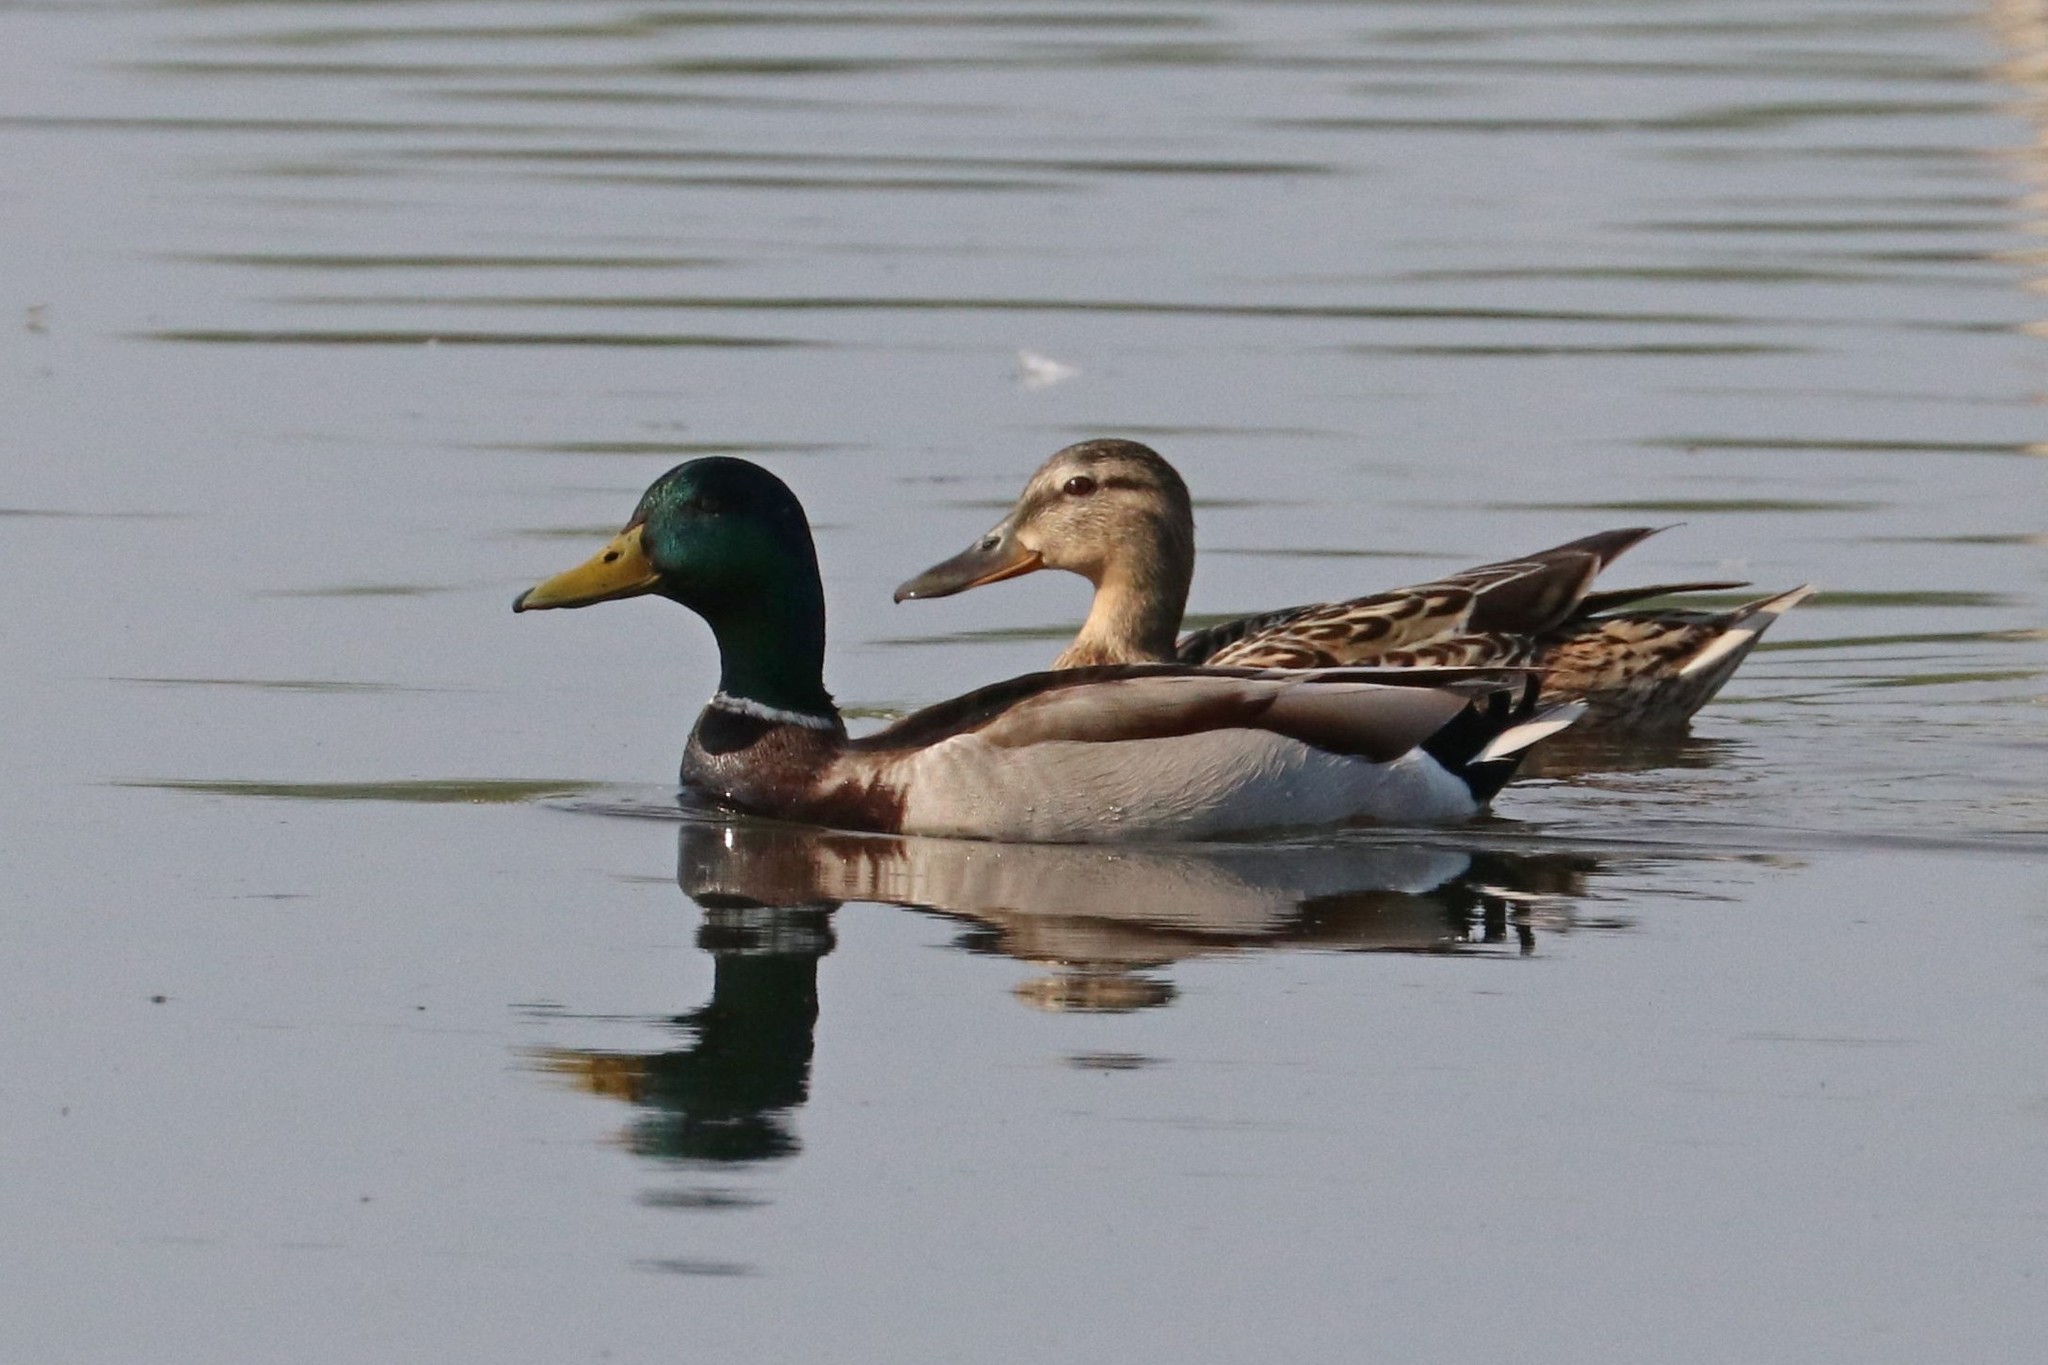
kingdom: Animalia
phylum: Chordata
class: Aves
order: Anseriformes
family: Anatidae
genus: Anas
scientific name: Anas platyrhynchos
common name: Mallard
